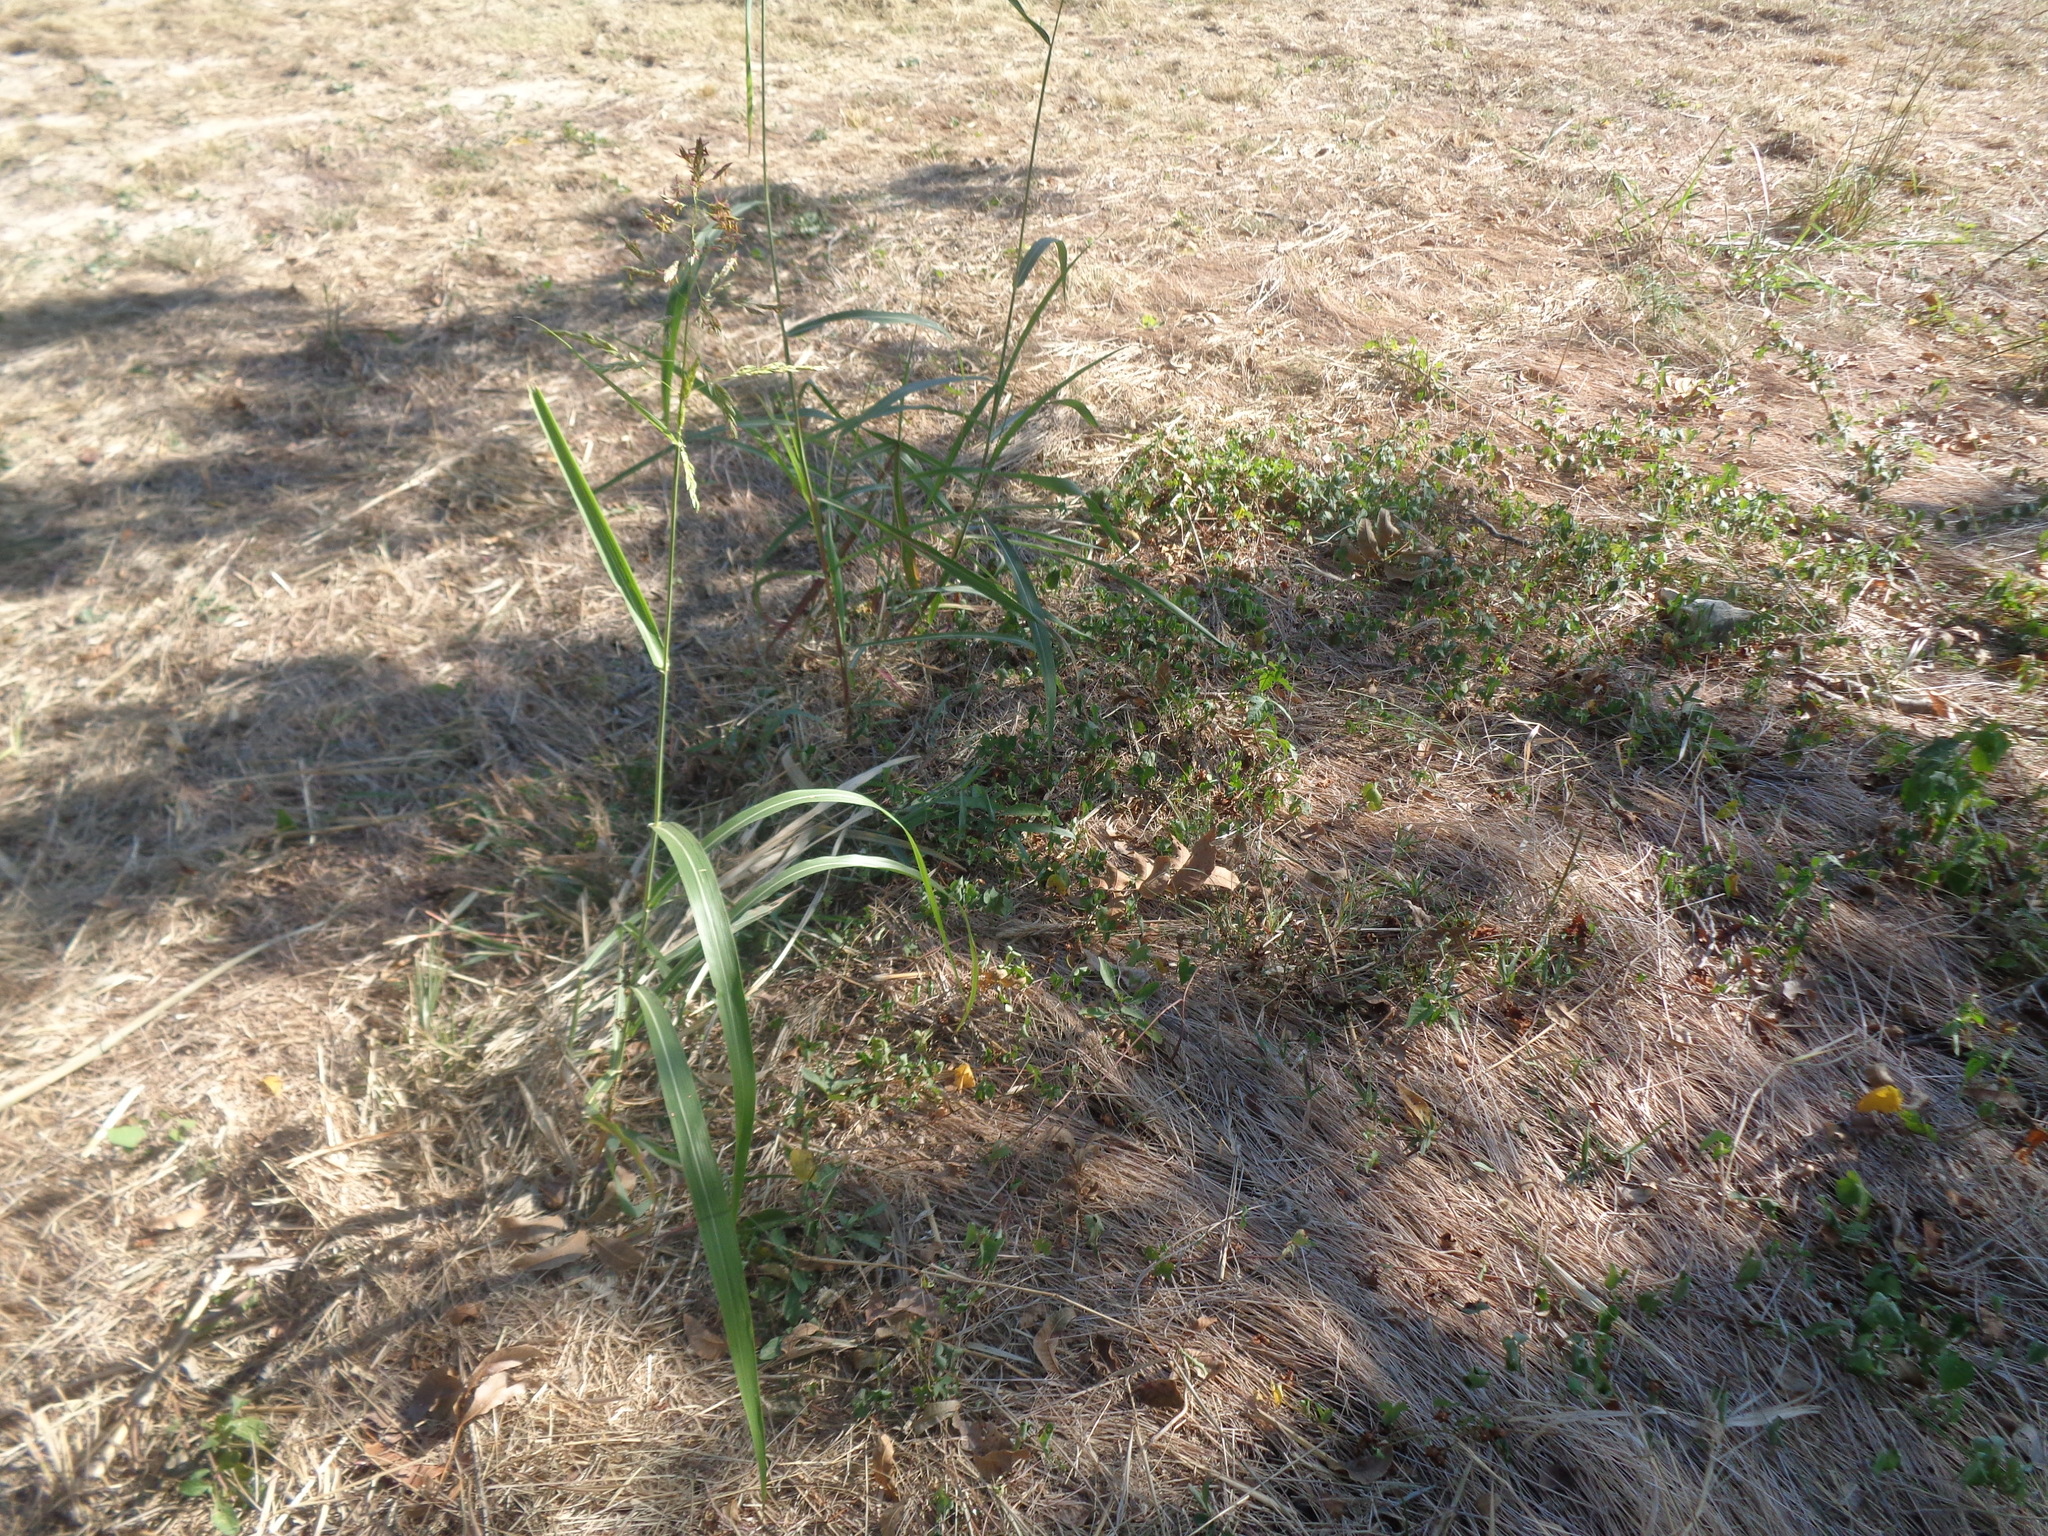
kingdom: Plantae
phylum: Tracheophyta
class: Liliopsida
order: Poales
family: Poaceae
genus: Sorghum
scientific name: Sorghum halepense
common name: Johnson-grass
